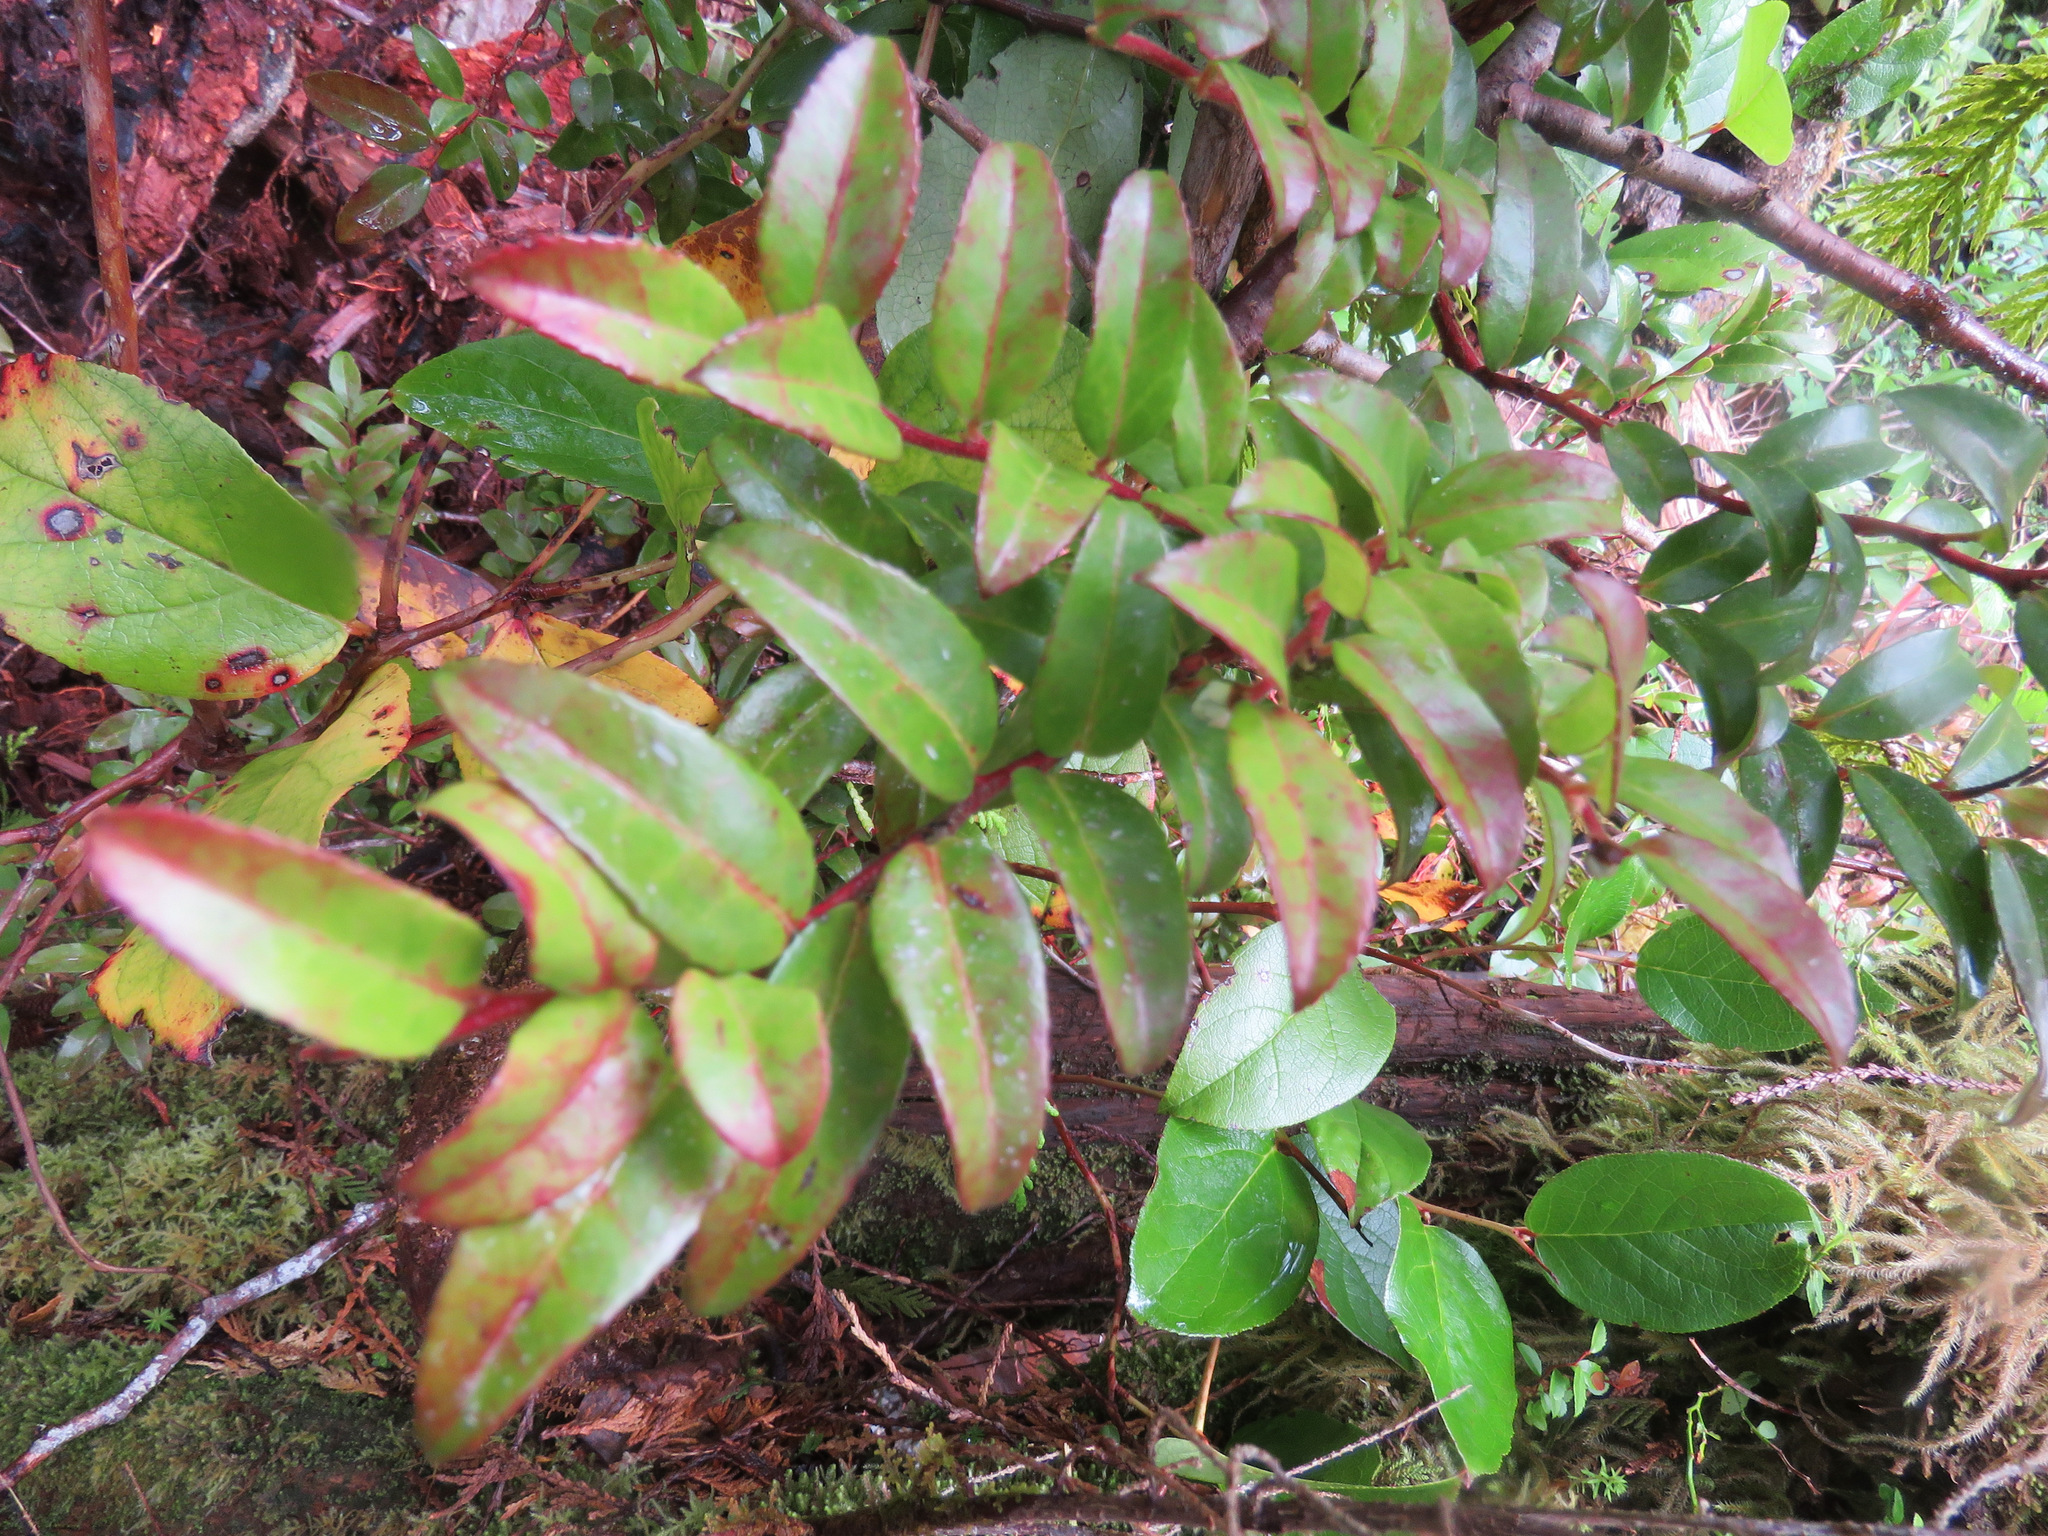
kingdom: Plantae
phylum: Tracheophyta
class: Magnoliopsida
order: Ericales
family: Ericaceae
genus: Vaccinium
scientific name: Vaccinium ovatum
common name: California-huckleberry
